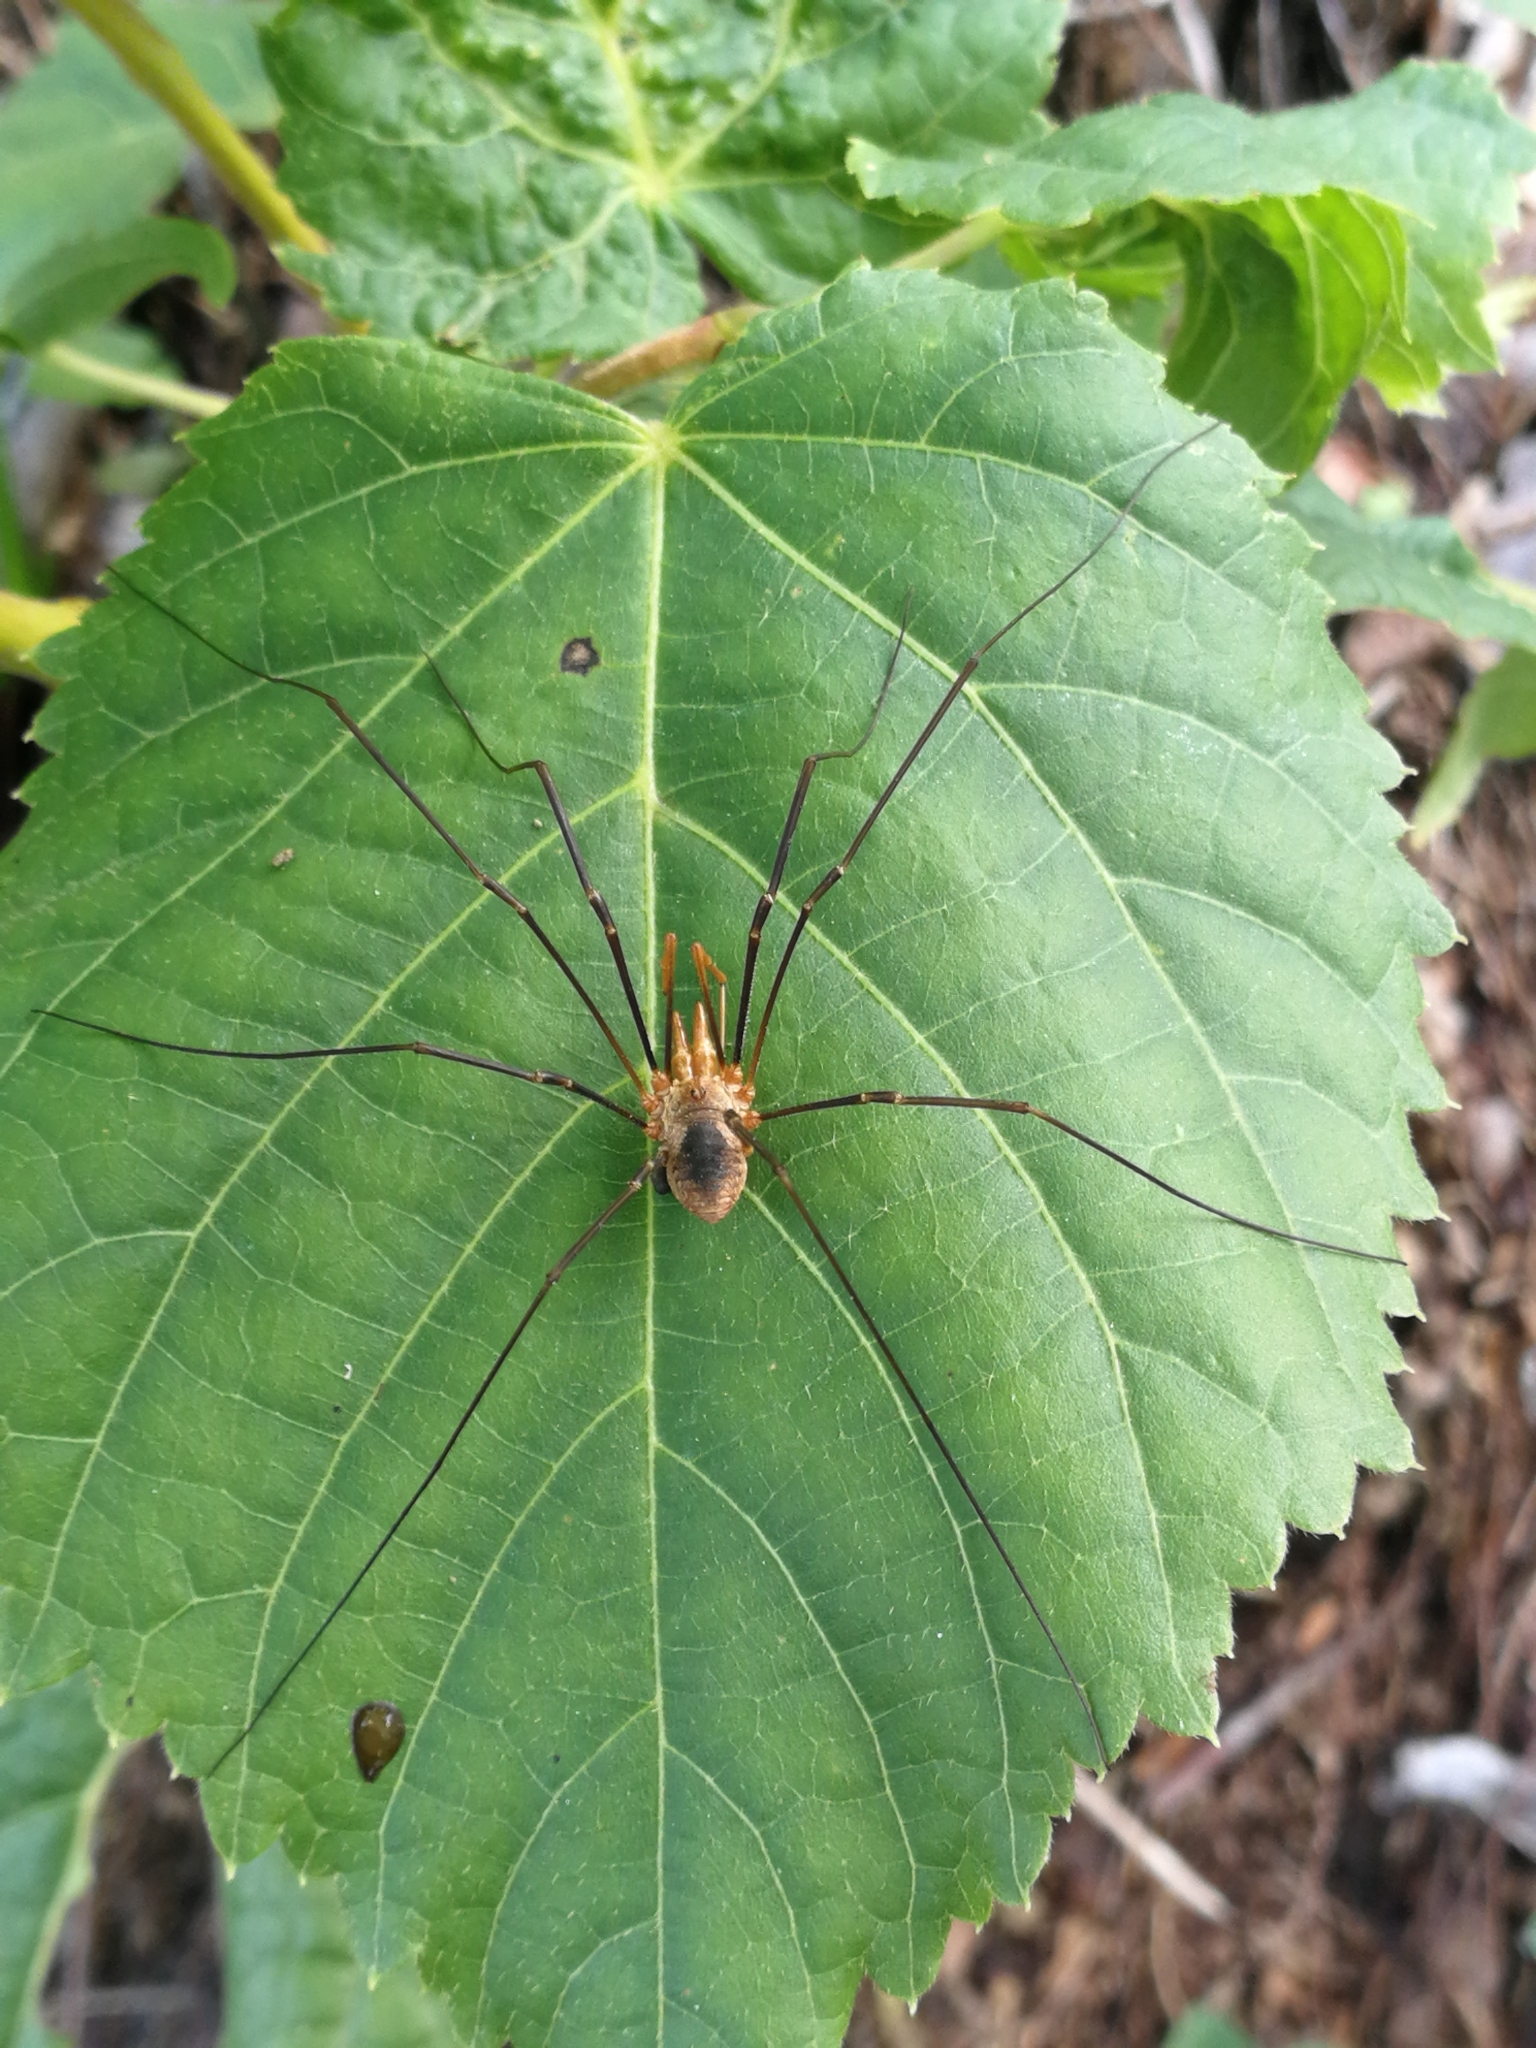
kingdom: Animalia
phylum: Arthropoda
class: Arachnida
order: Opiliones
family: Phalangiidae
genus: Phalangium
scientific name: Phalangium opilio
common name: Daddy longleg
